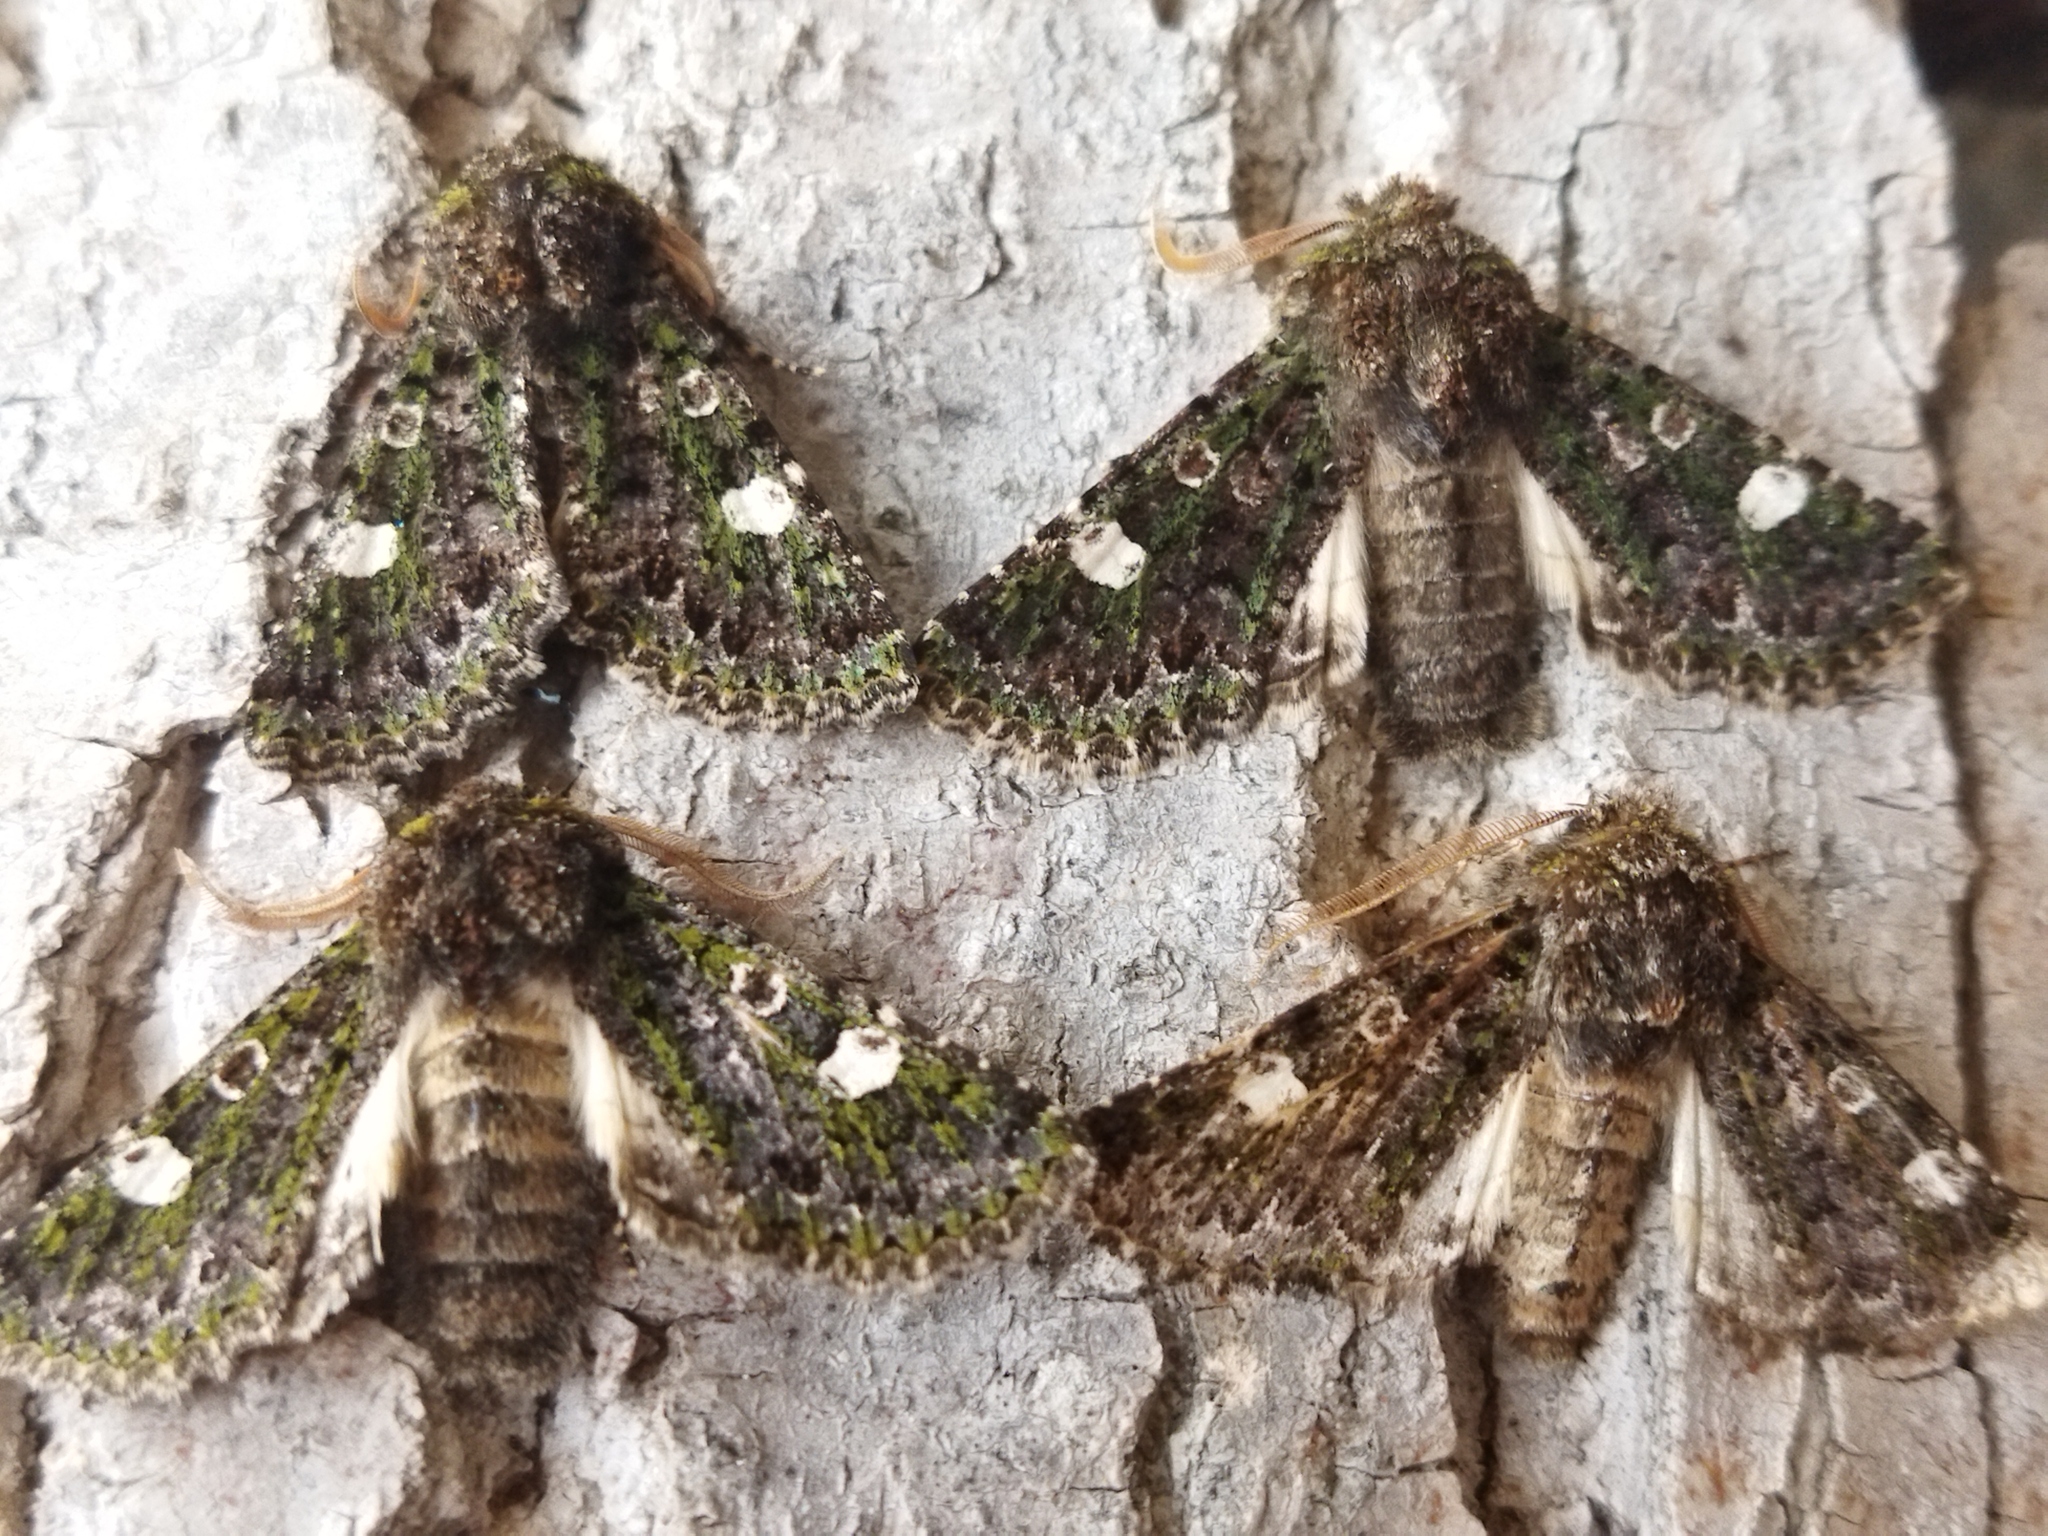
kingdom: Animalia
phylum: Arthropoda
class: Insecta
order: Lepidoptera
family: Noctuidae
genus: Valeria
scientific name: Valeria oleagina
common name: Green-brindled dot
